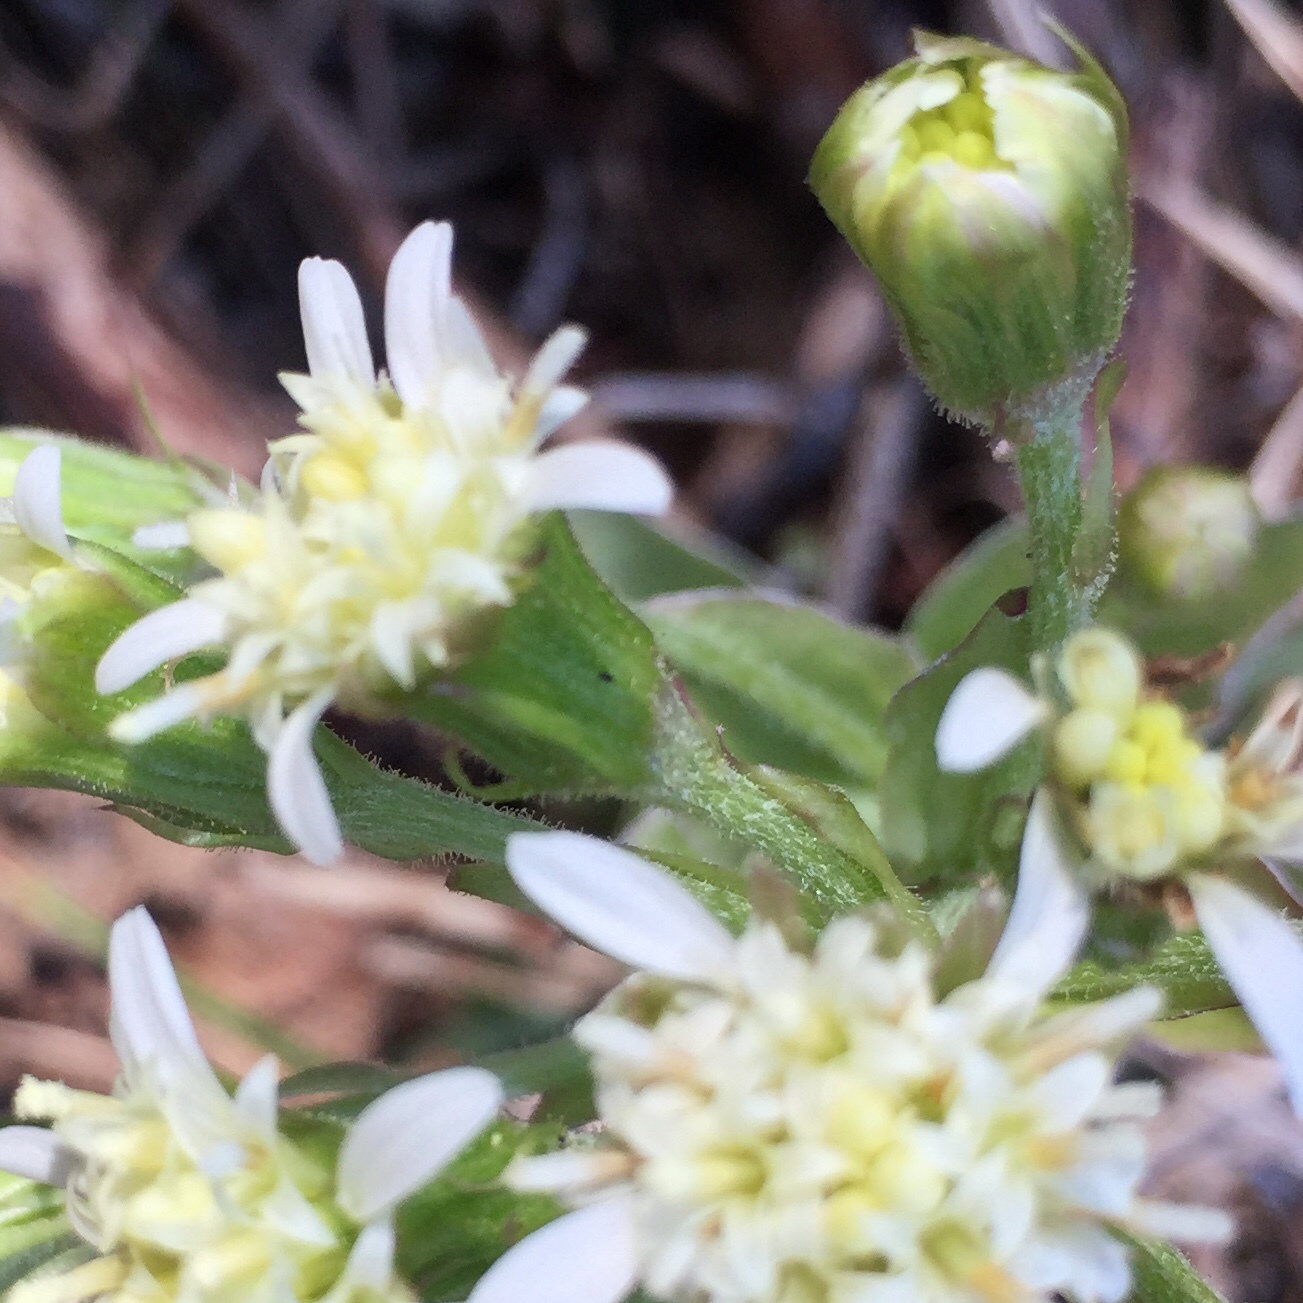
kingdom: Plantae
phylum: Tracheophyta
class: Magnoliopsida
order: Asterales
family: Asteraceae
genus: Petasites
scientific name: Petasites frigidus
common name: Arctic butterbur
